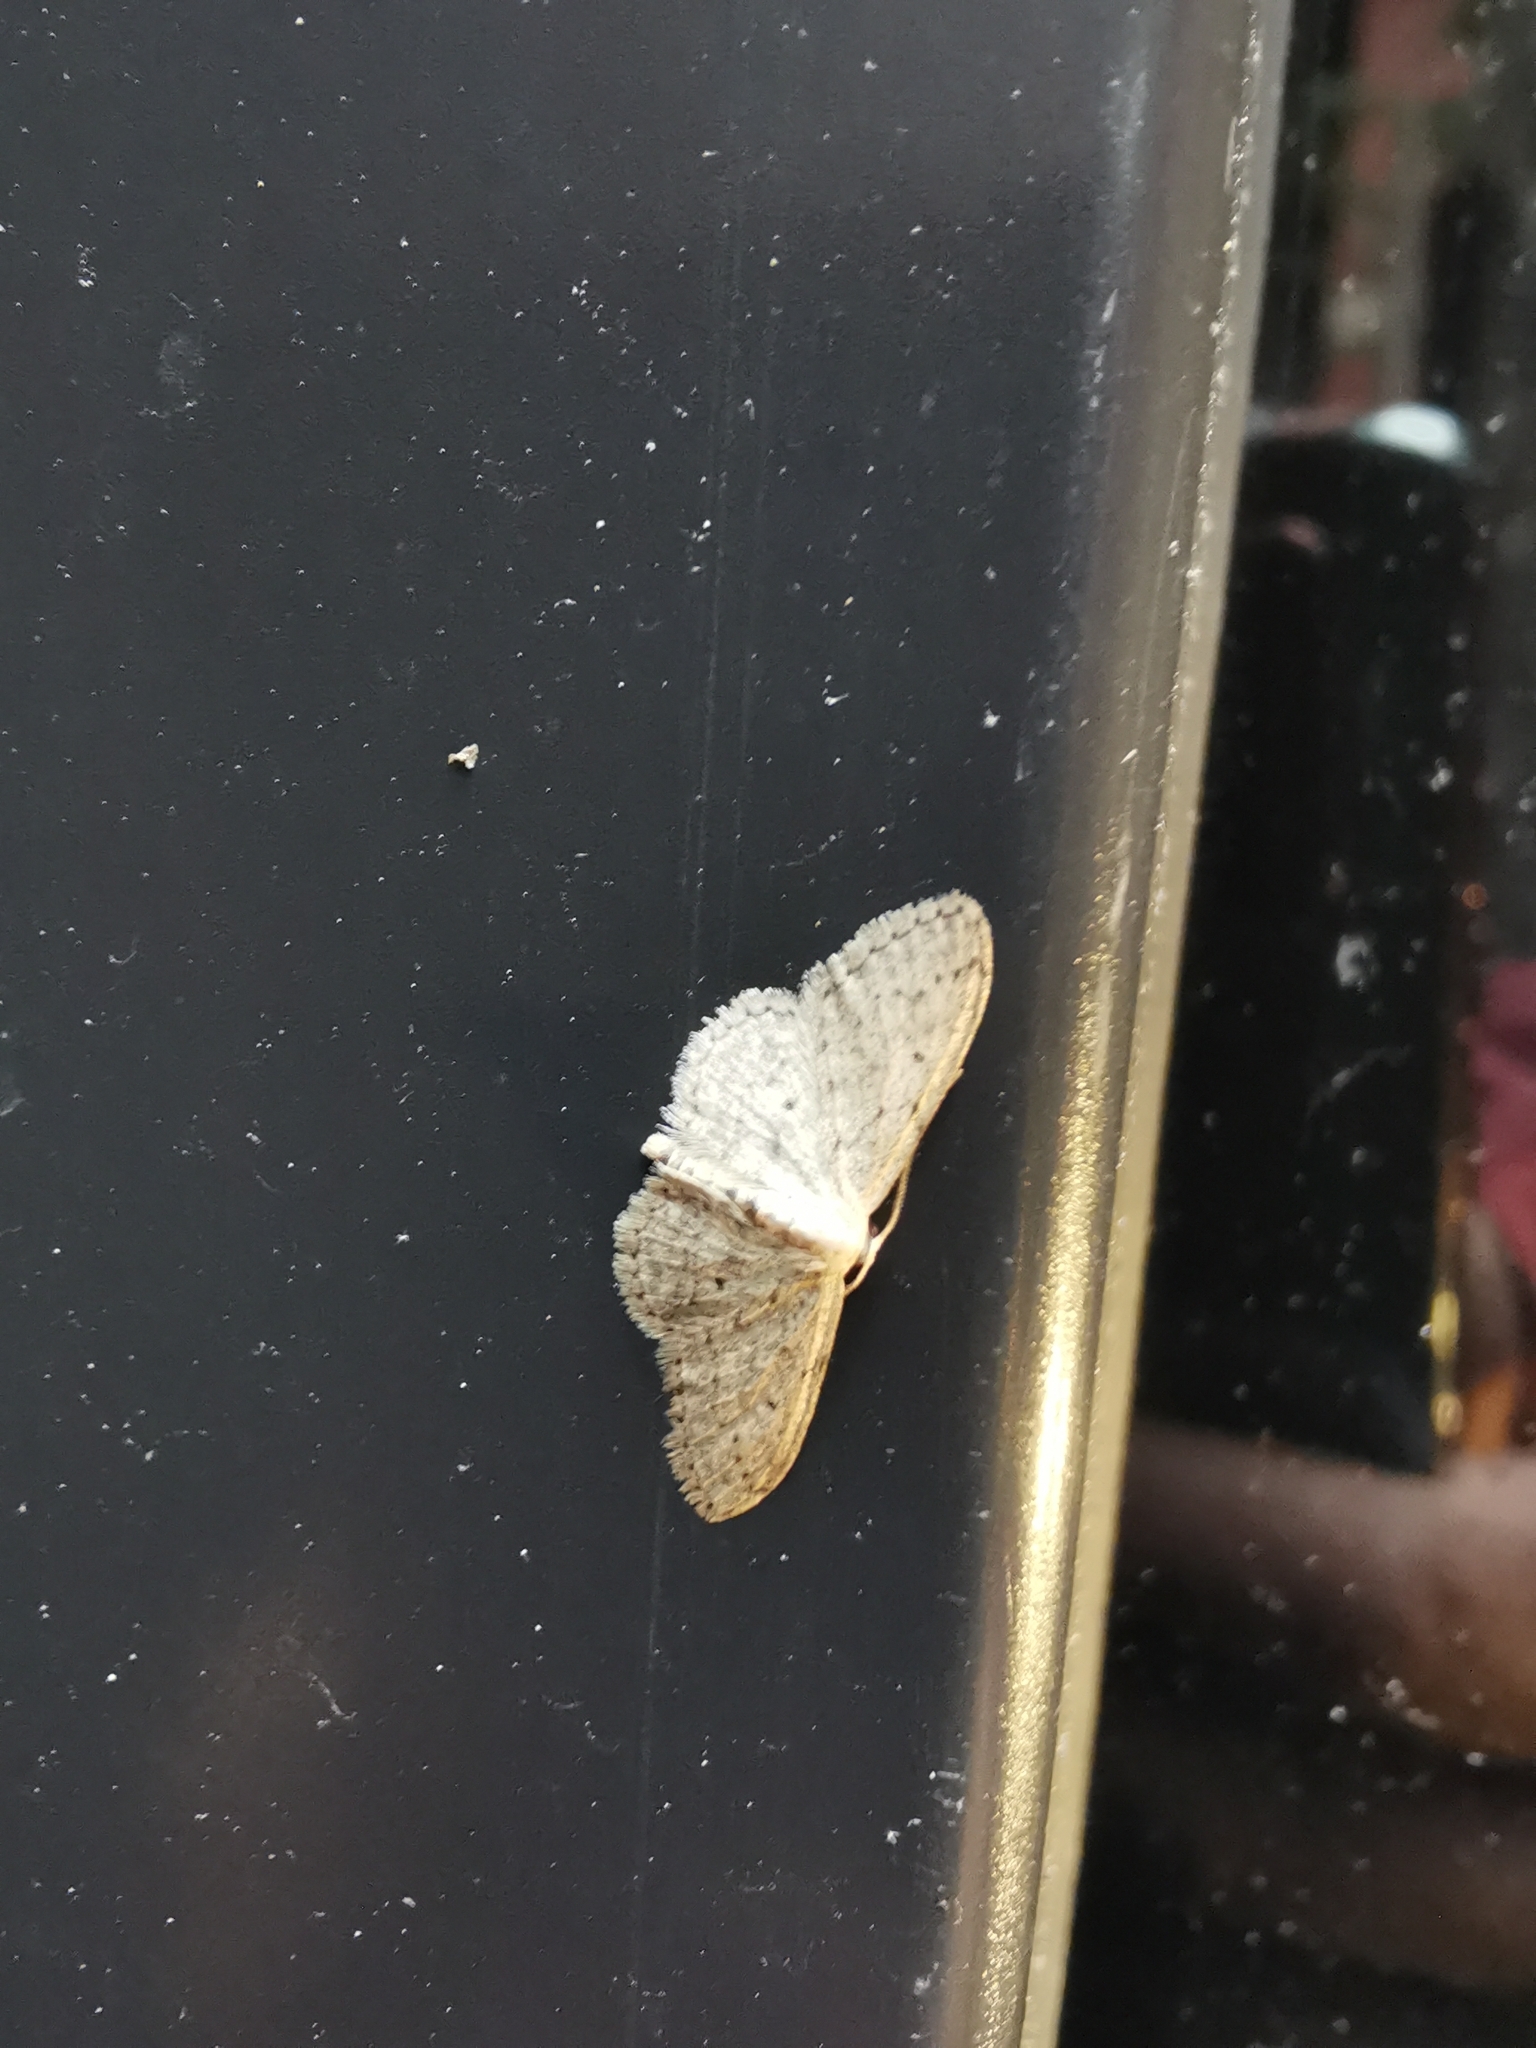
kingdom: Animalia
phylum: Arthropoda
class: Insecta
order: Lepidoptera
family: Geometridae
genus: Idaea
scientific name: Idaea seriata
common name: Small dusty wave
